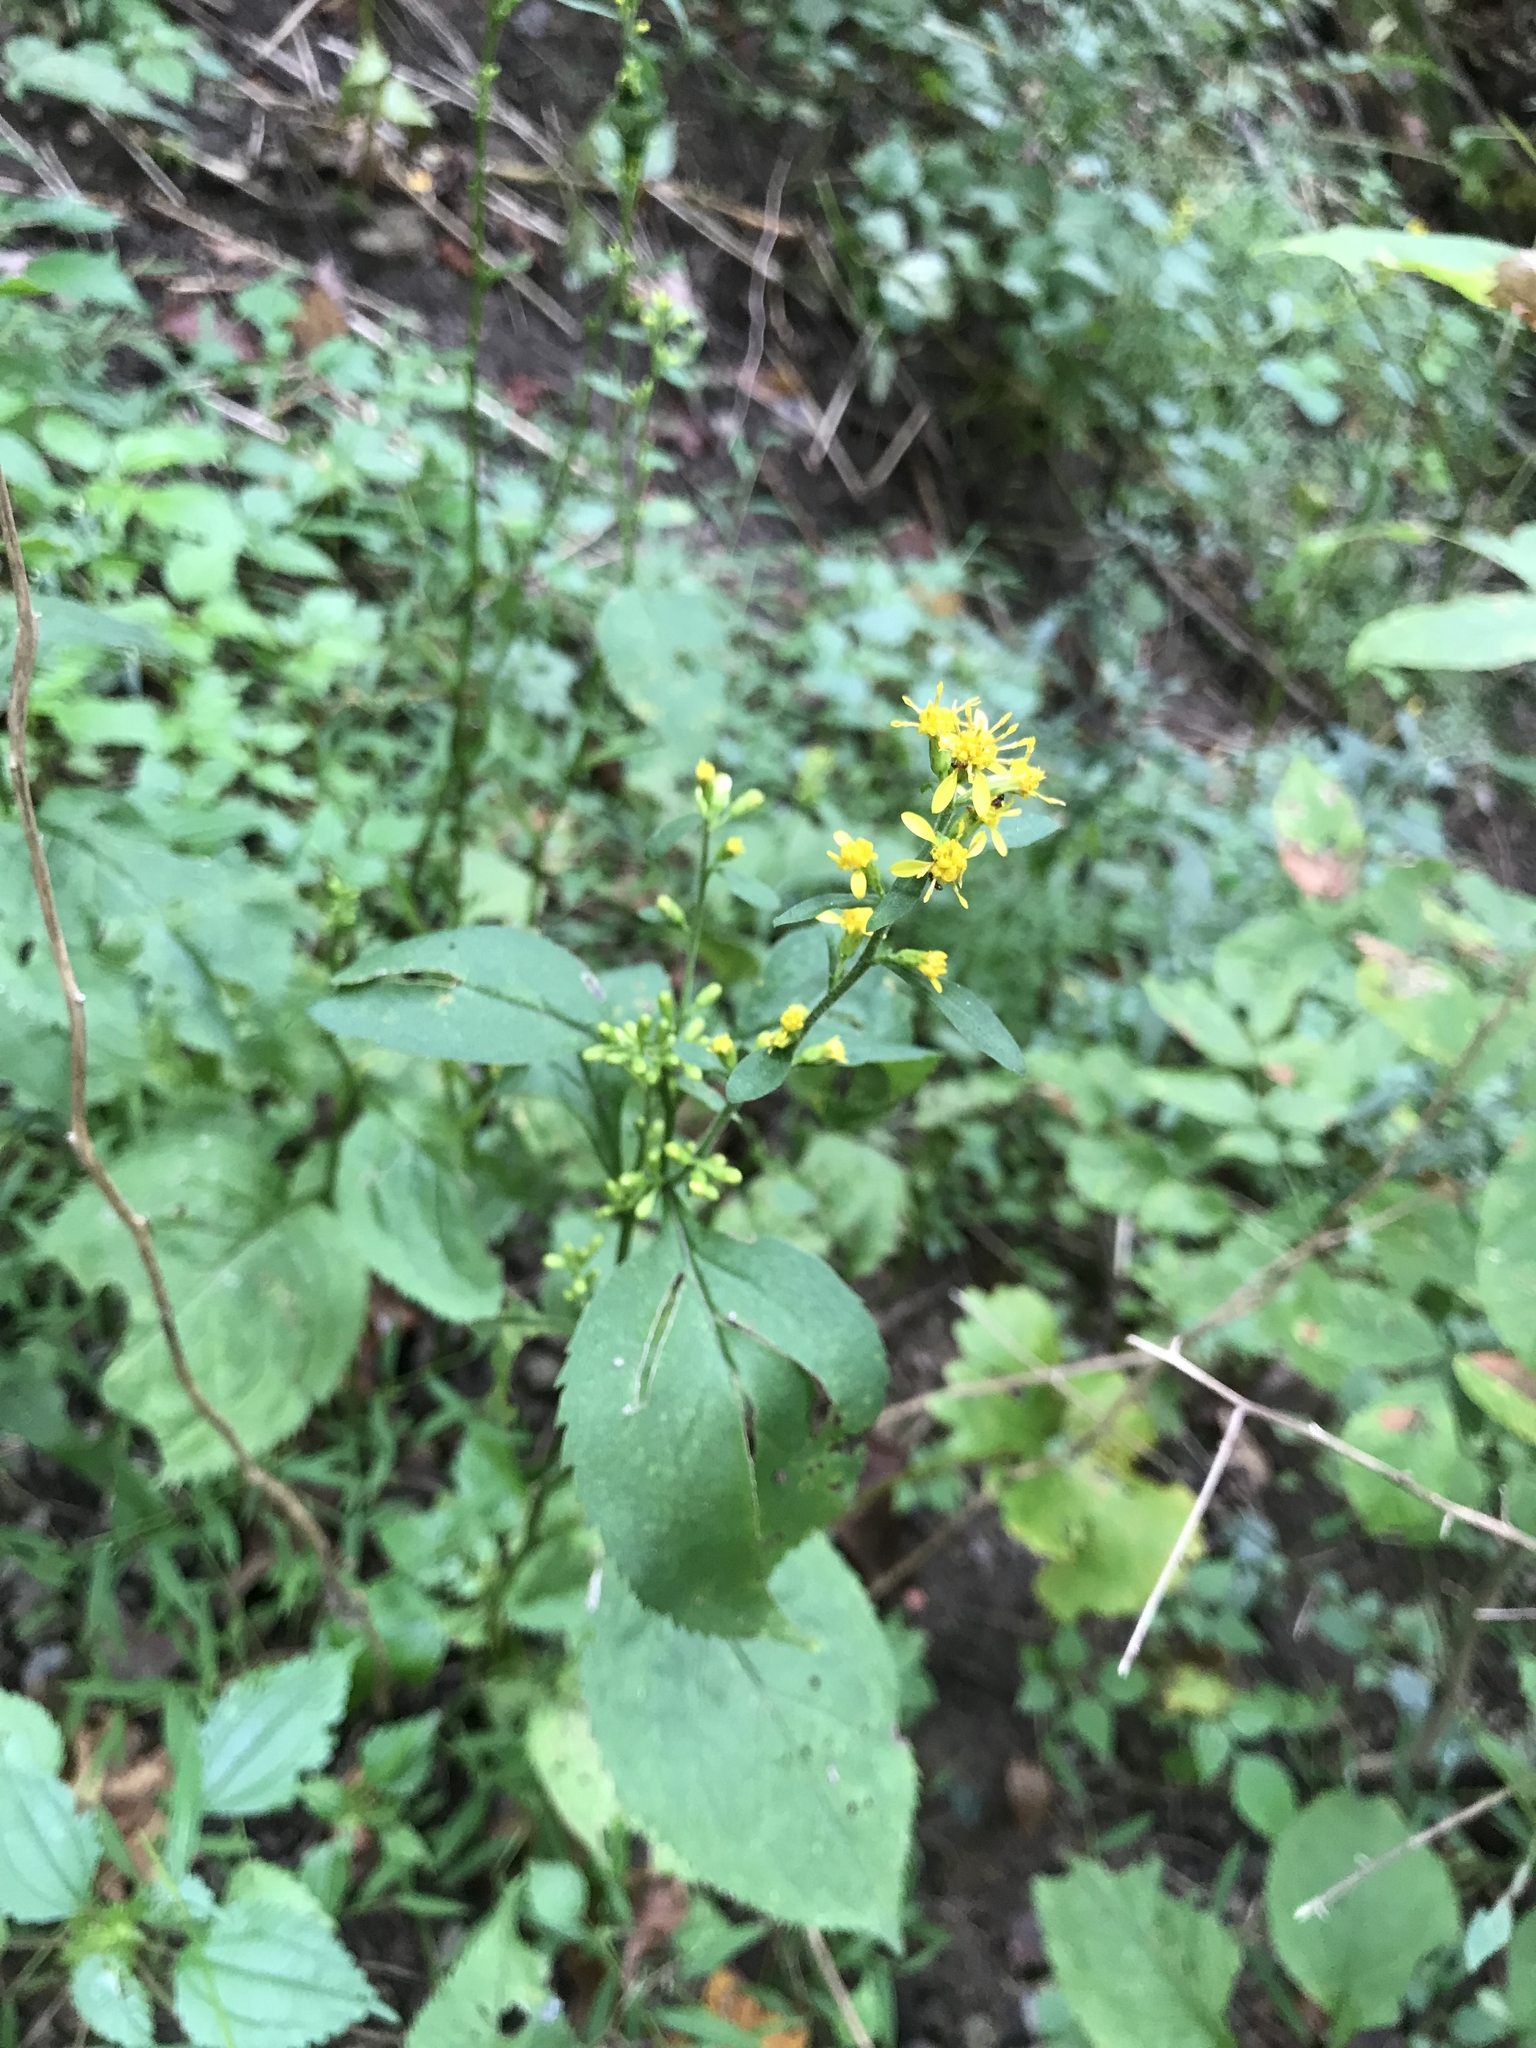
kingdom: Plantae
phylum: Tracheophyta
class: Magnoliopsida
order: Asterales
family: Asteraceae
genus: Solidago
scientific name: Solidago flexicaulis
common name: Zig-zag goldenrod
